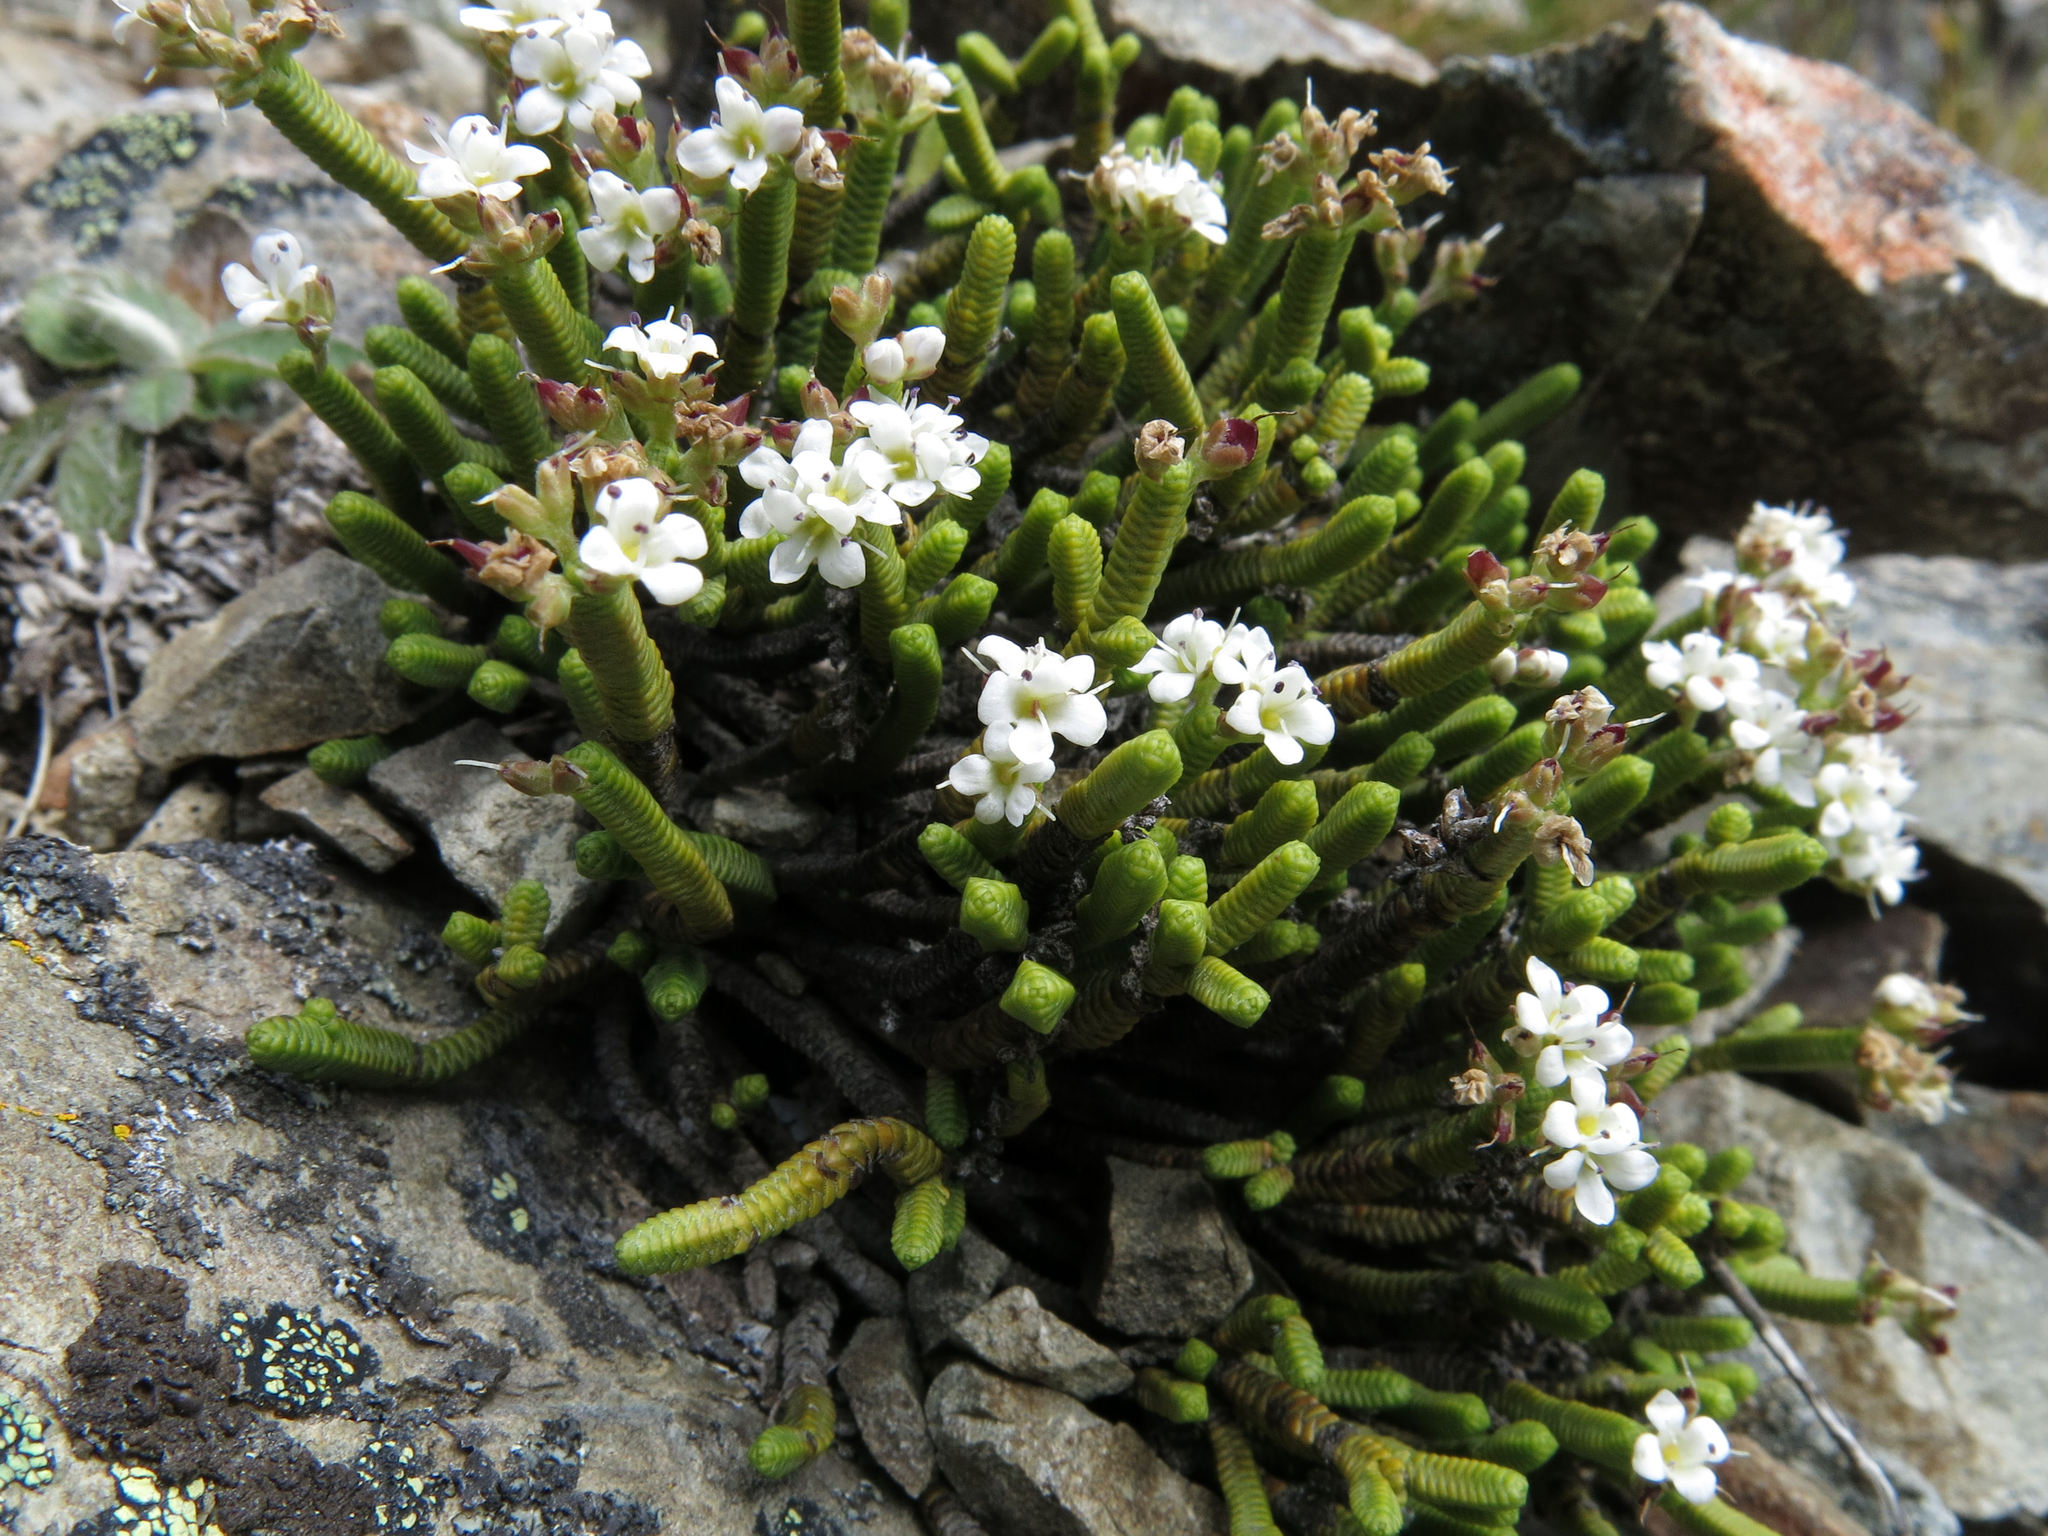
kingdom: Plantae
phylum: Tracheophyta
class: Magnoliopsida
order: Lamiales
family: Plantaginaceae
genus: Veronica
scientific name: Veronica quadrifaria
